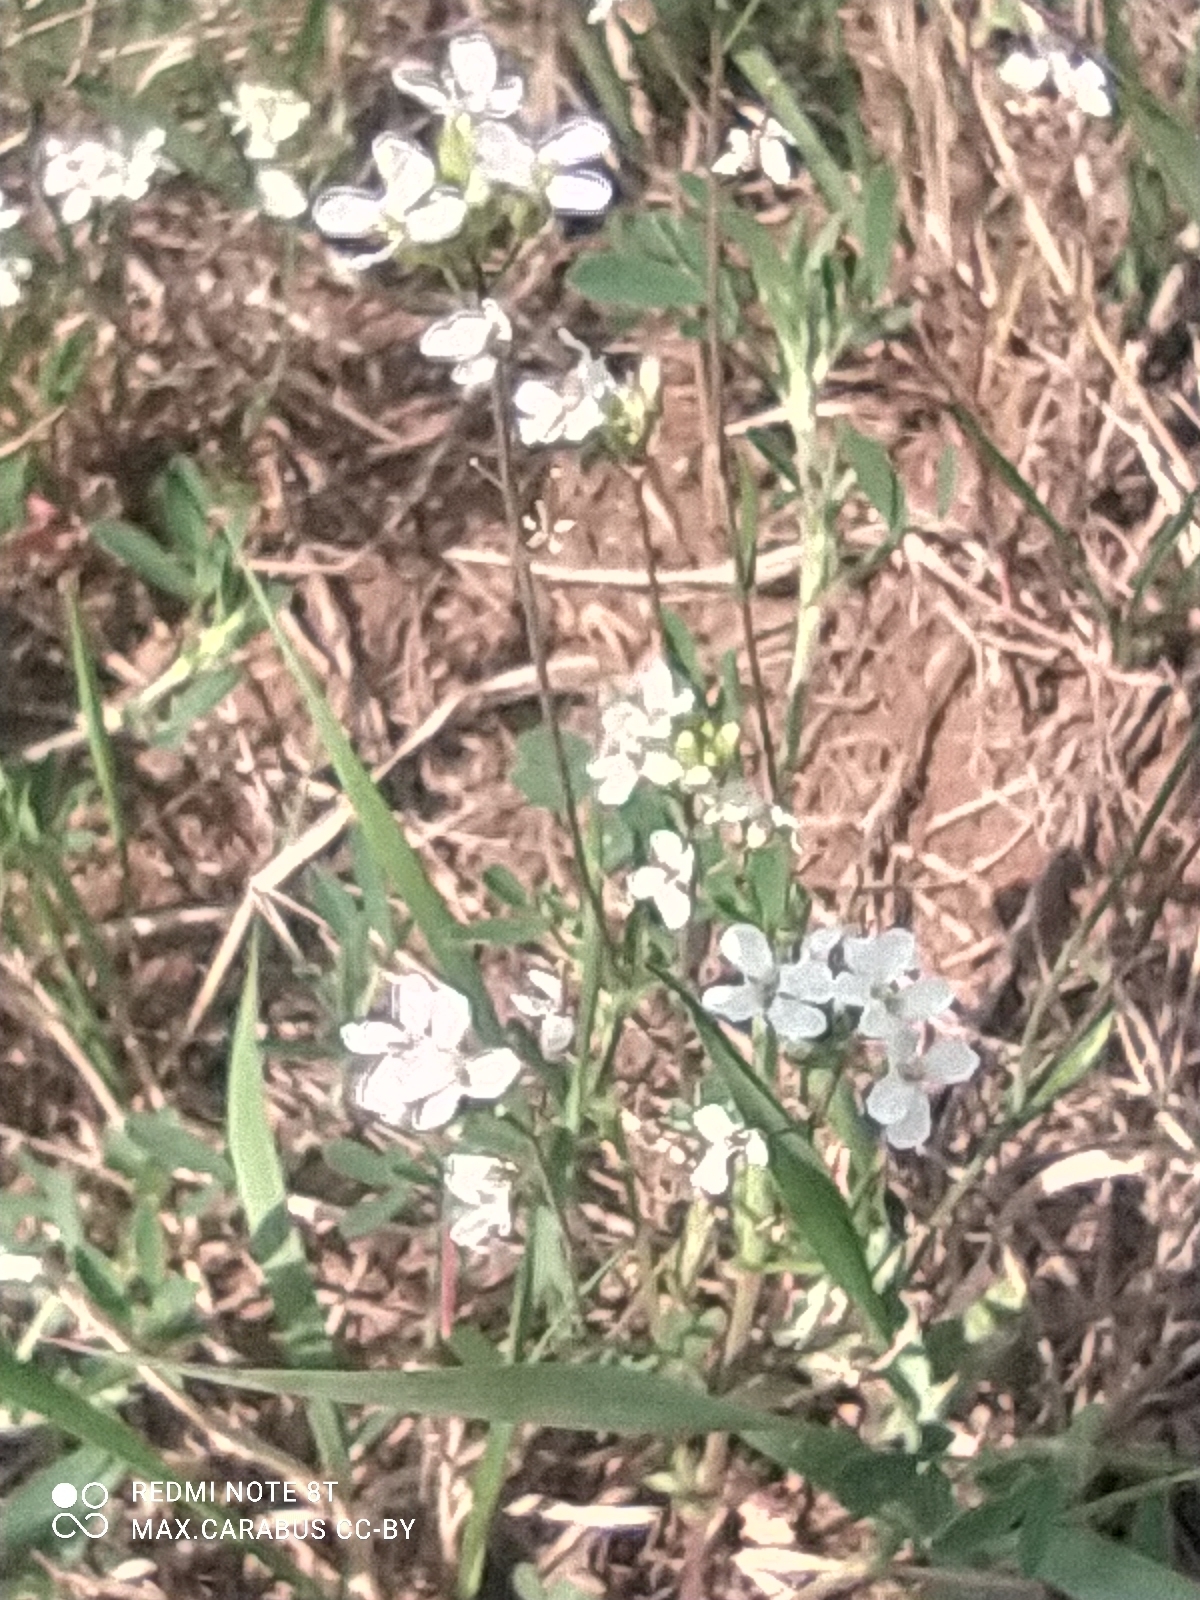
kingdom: Plantae
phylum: Tracheophyta
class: Magnoliopsida
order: Brassicales
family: Brassicaceae
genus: Pseudoarabidopsis
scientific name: Pseudoarabidopsis toxophylla
